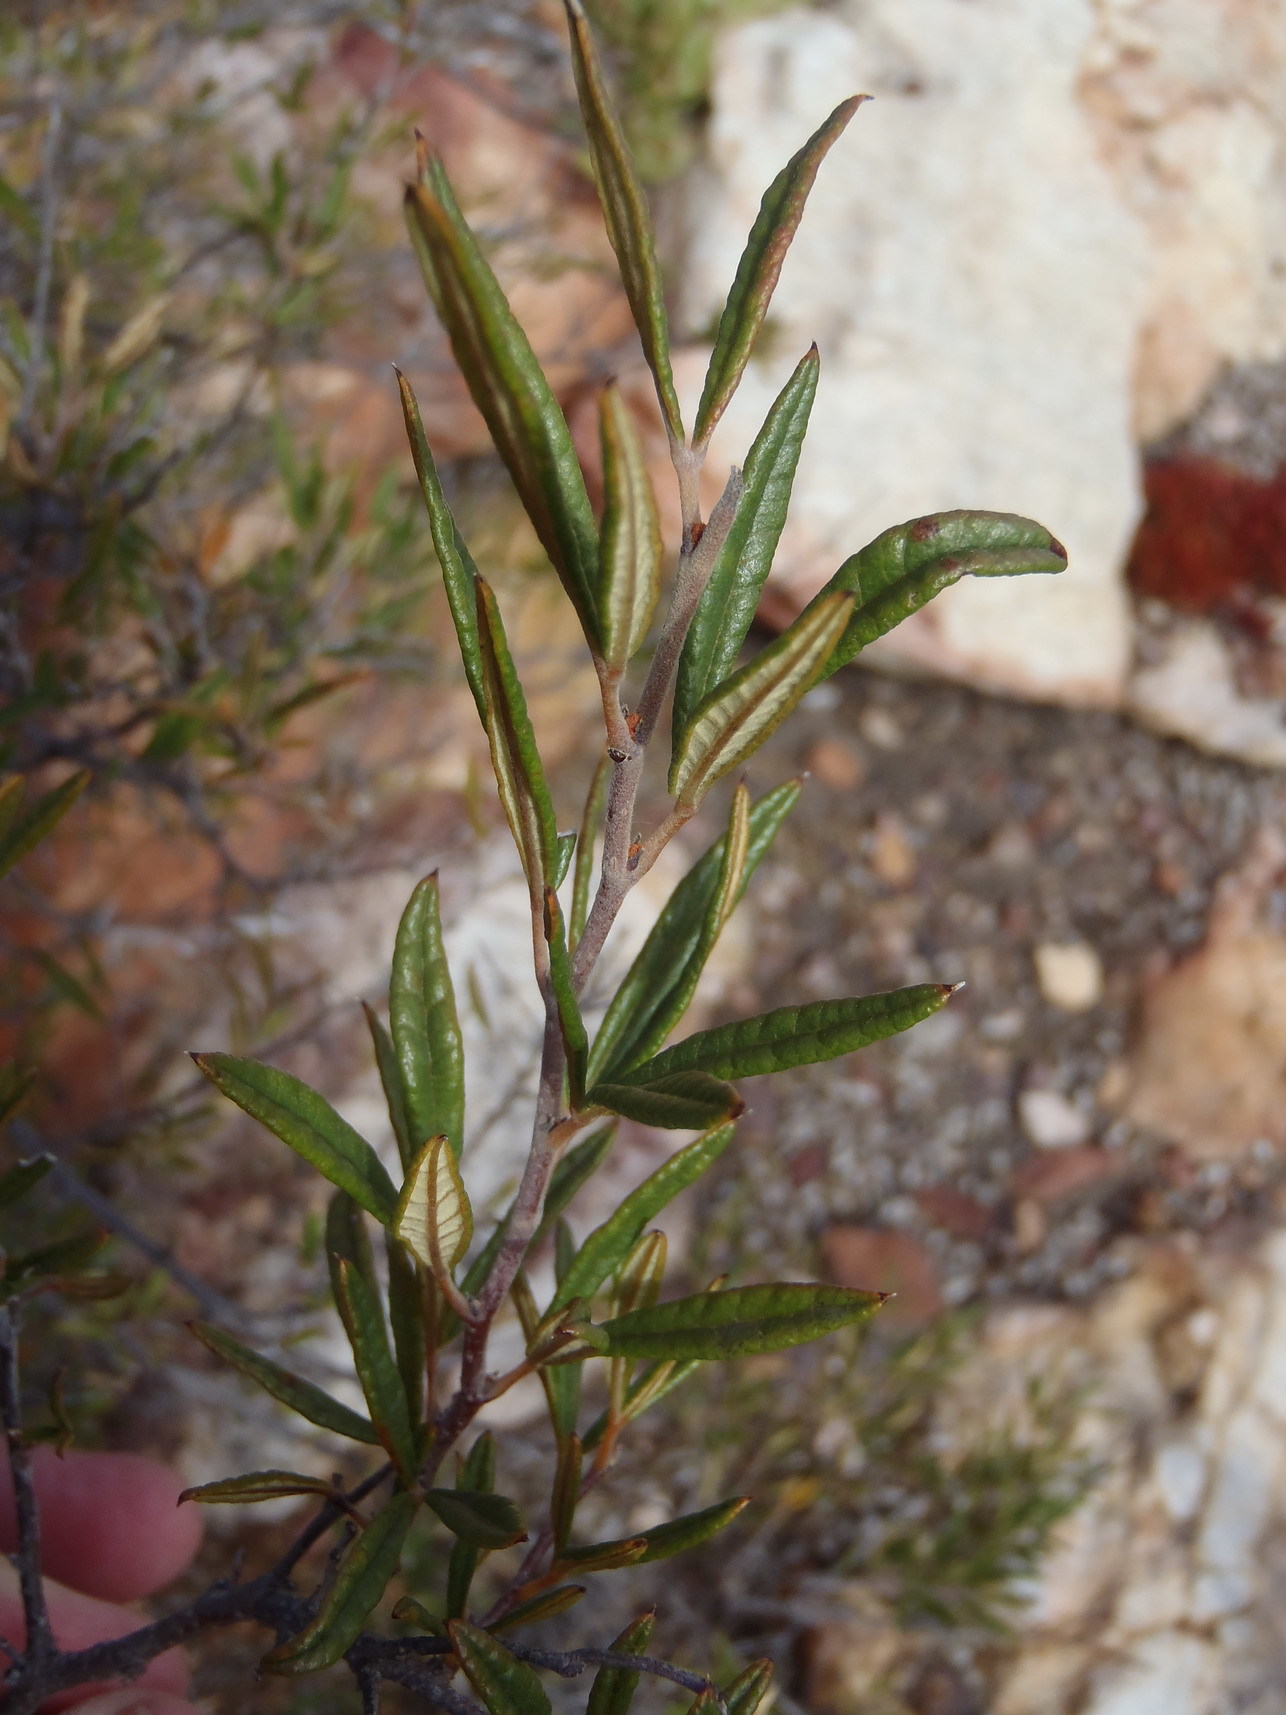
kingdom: Plantae
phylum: Tracheophyta
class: Magnoliopsida
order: Sapindales
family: Anacardiaceae
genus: Searsia
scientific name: Searsia rosmarinifolia
